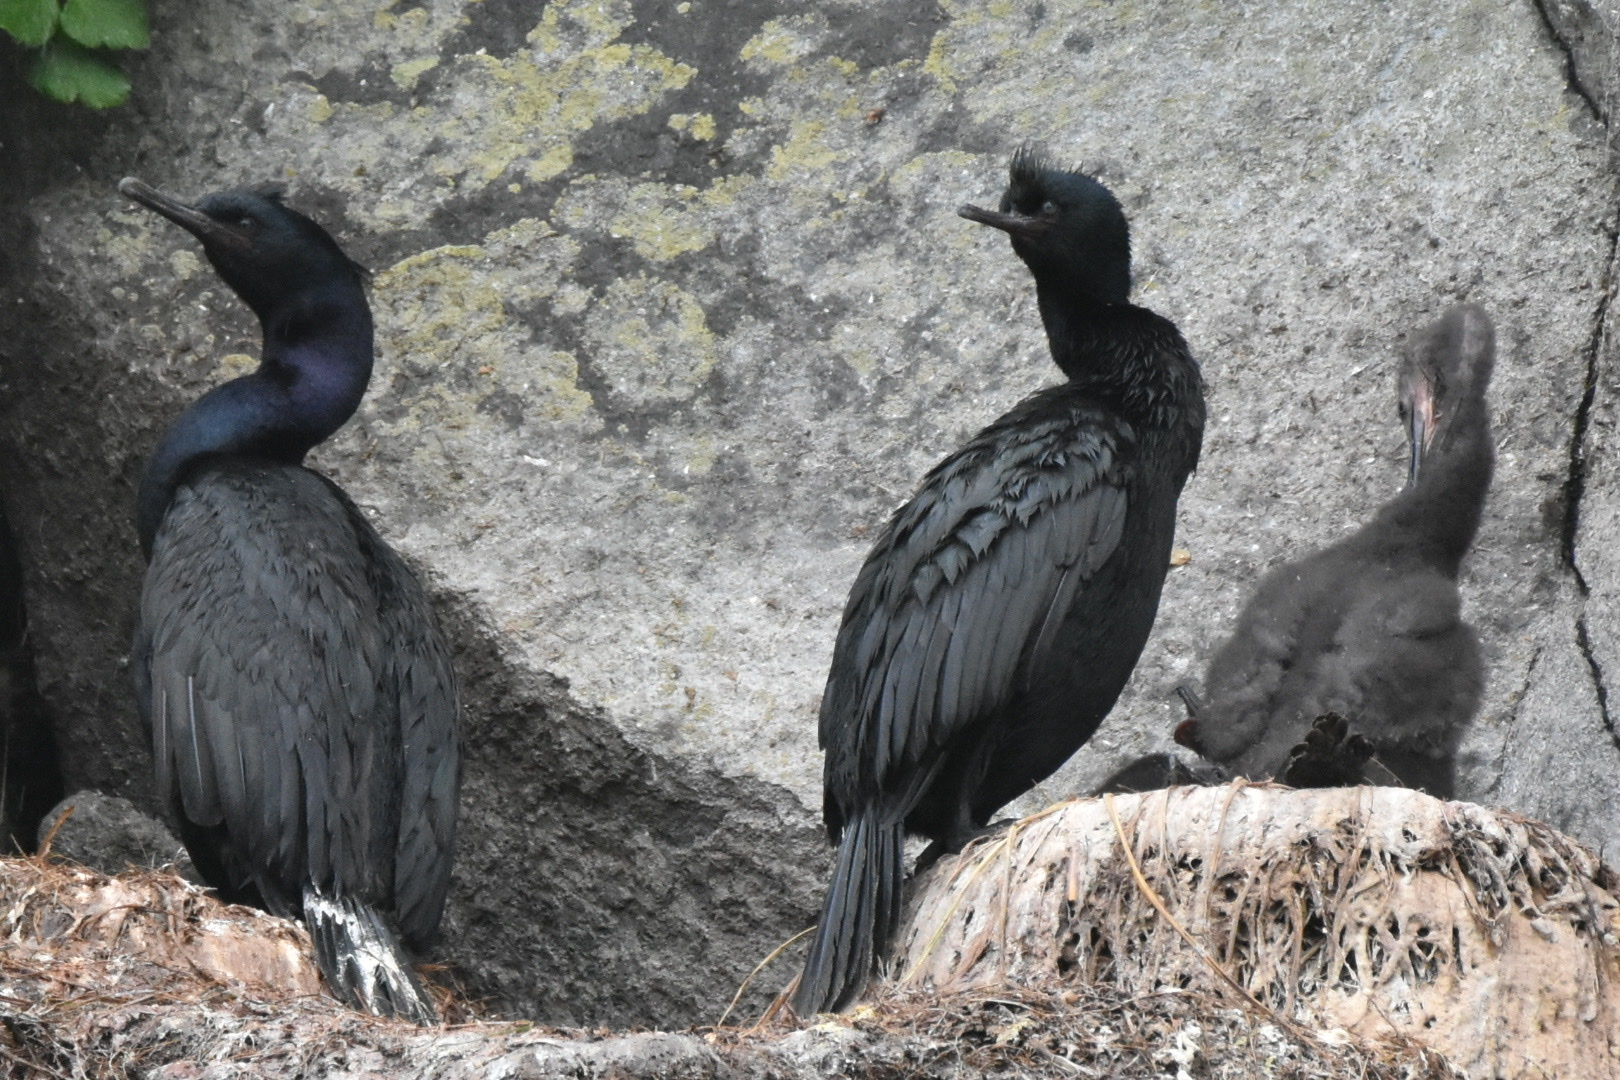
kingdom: Animalia
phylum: Chordata
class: Aves
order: Suliformes
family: Phalacrocoracidae
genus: Phalacrocorax
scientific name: Phalacrocorax pelagicus
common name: Pelagic cormorant
